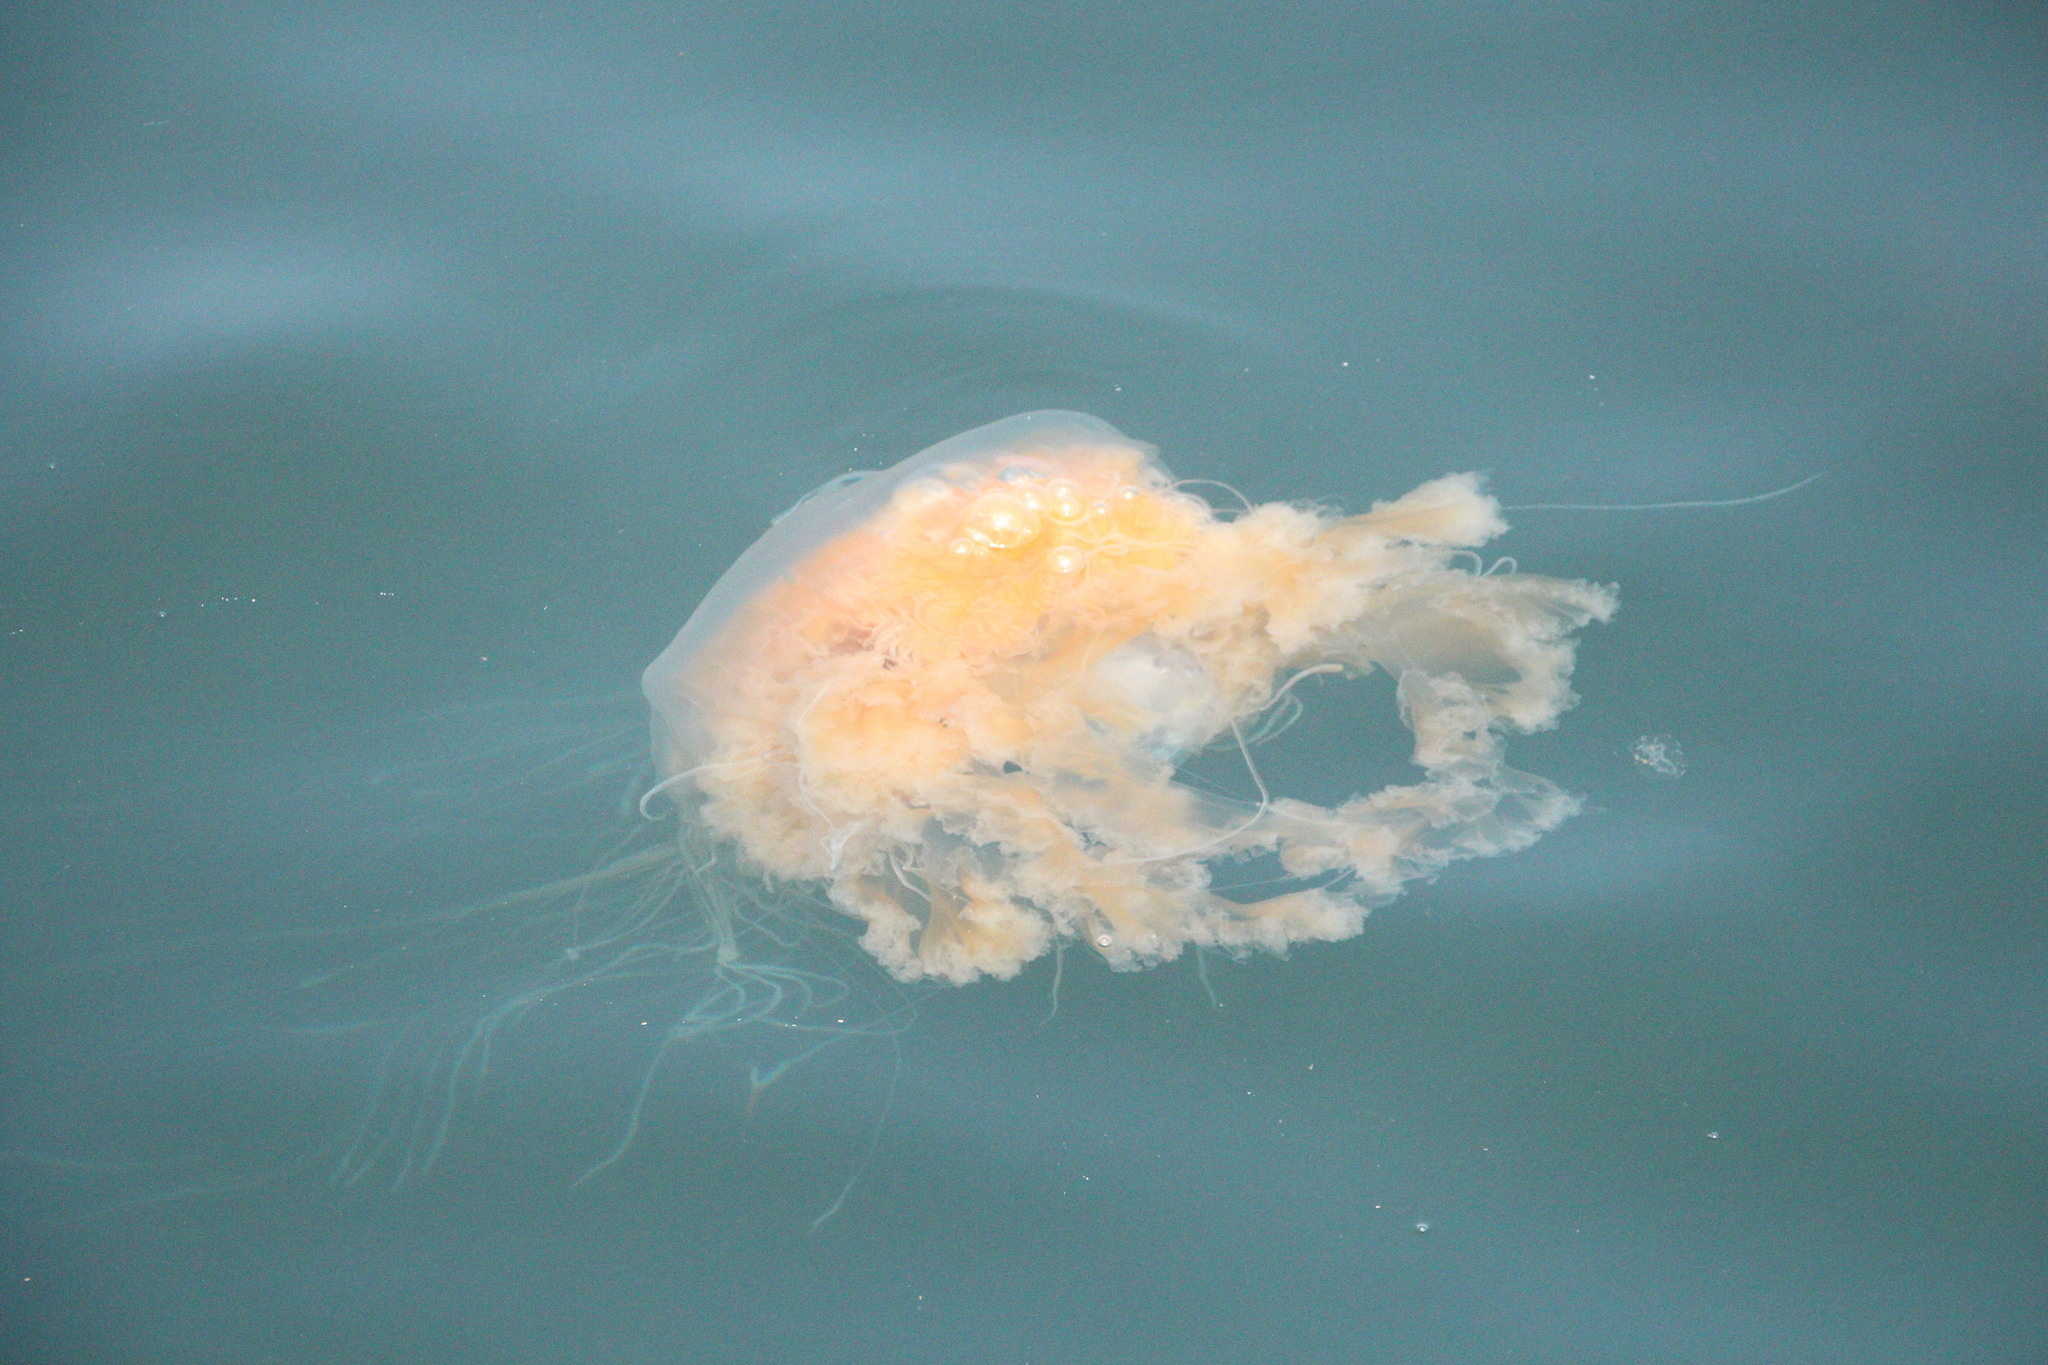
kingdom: Animalia
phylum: Cnidaria
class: Scyphozoa
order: Semaeostomeae
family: Phacellophoridae
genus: Phacellophora
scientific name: Phacellophora camtschatica
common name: Fried-egg jellyfish
